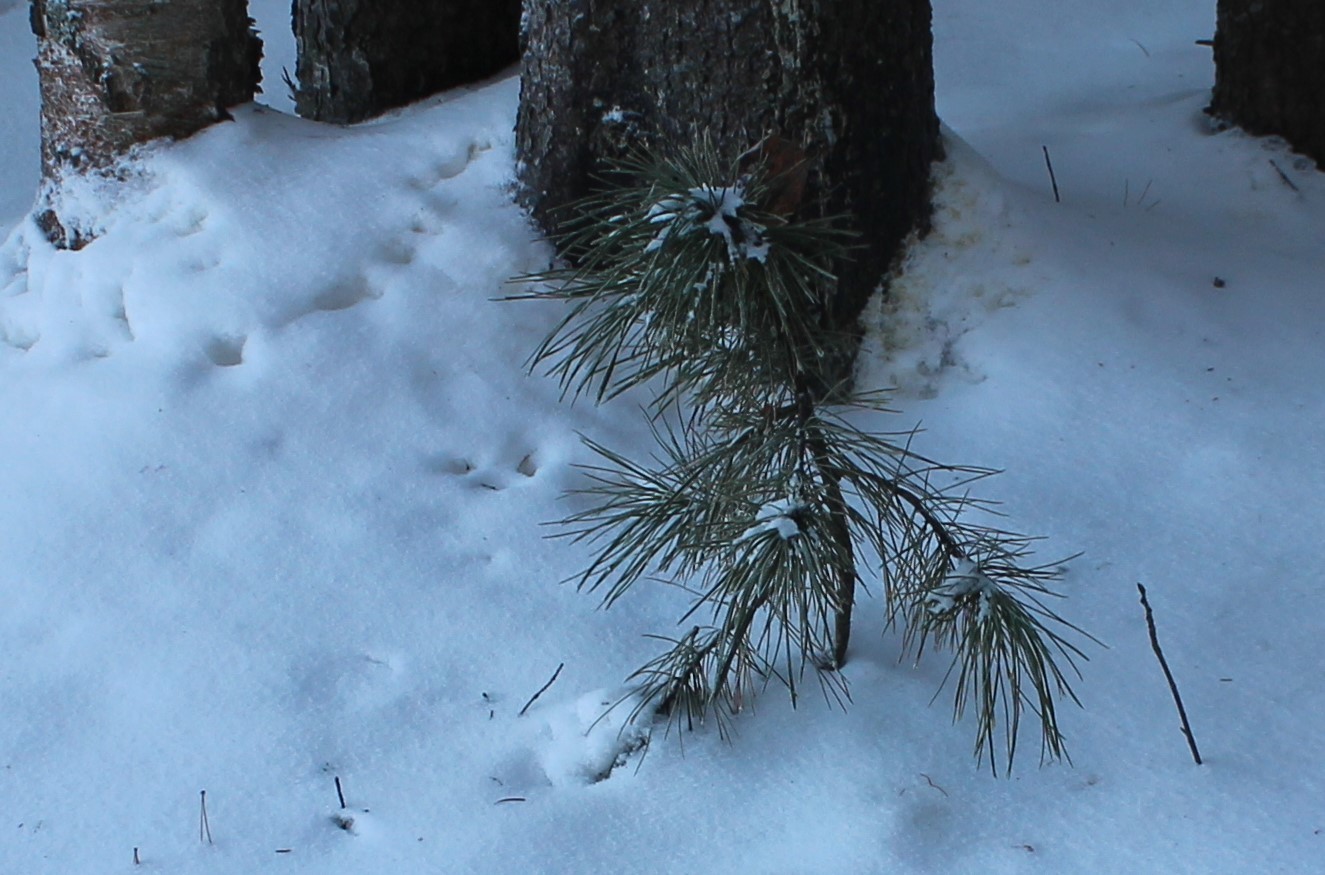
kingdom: Plantae
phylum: Tracheophyta
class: Pinopsida
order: Pinales
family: Pinaceae
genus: Pinus
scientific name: Pinus sibirica
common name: Siberian pine
